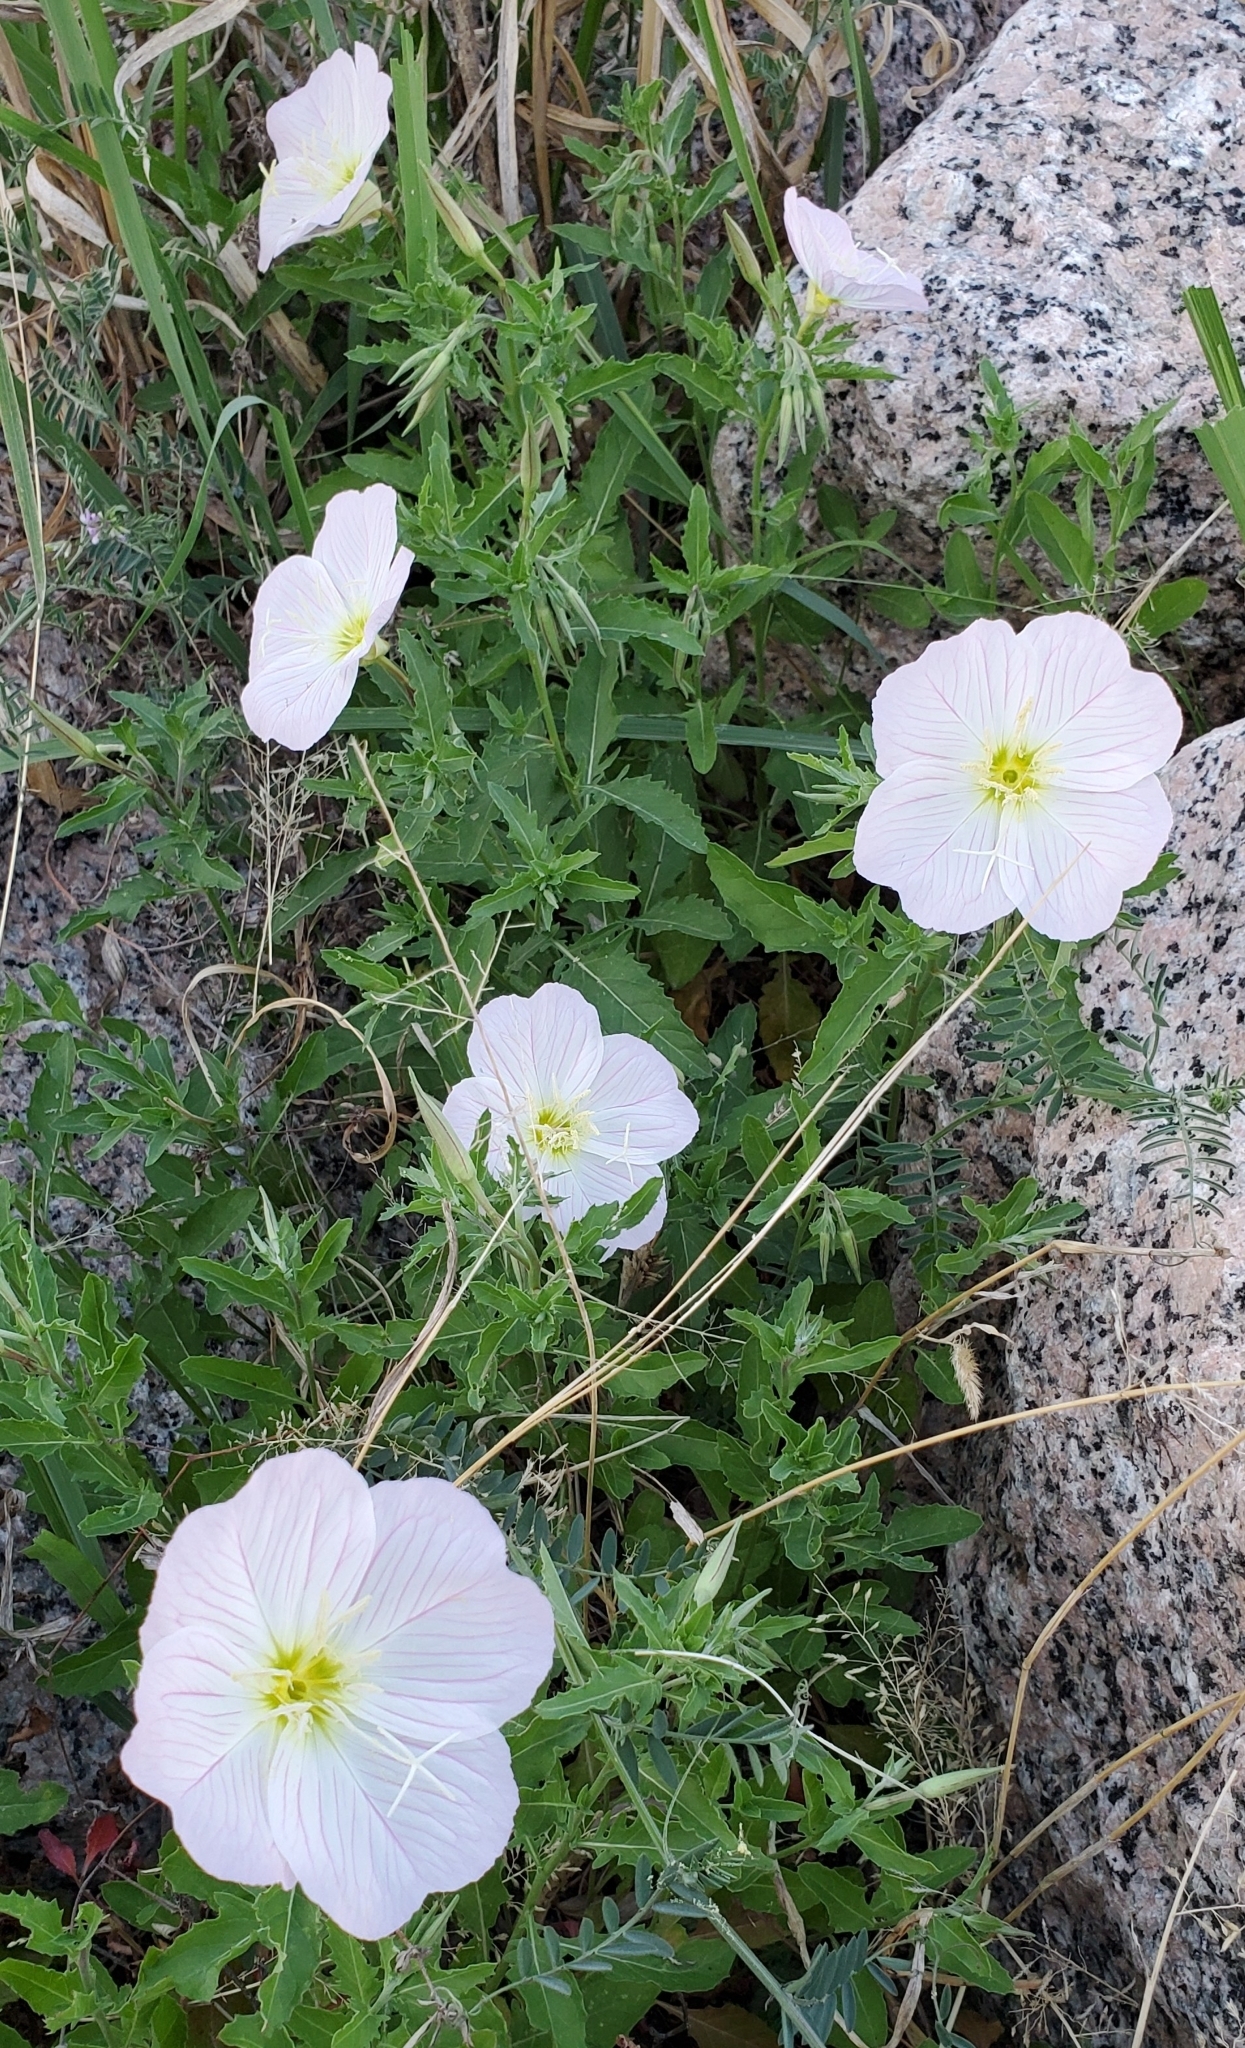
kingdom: Plantae
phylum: Tracheophyta
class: Magnoliopsida
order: Myrtales
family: Onagraceae
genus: Oenothera
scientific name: Oenothera speciosa
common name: White evening-primrose
